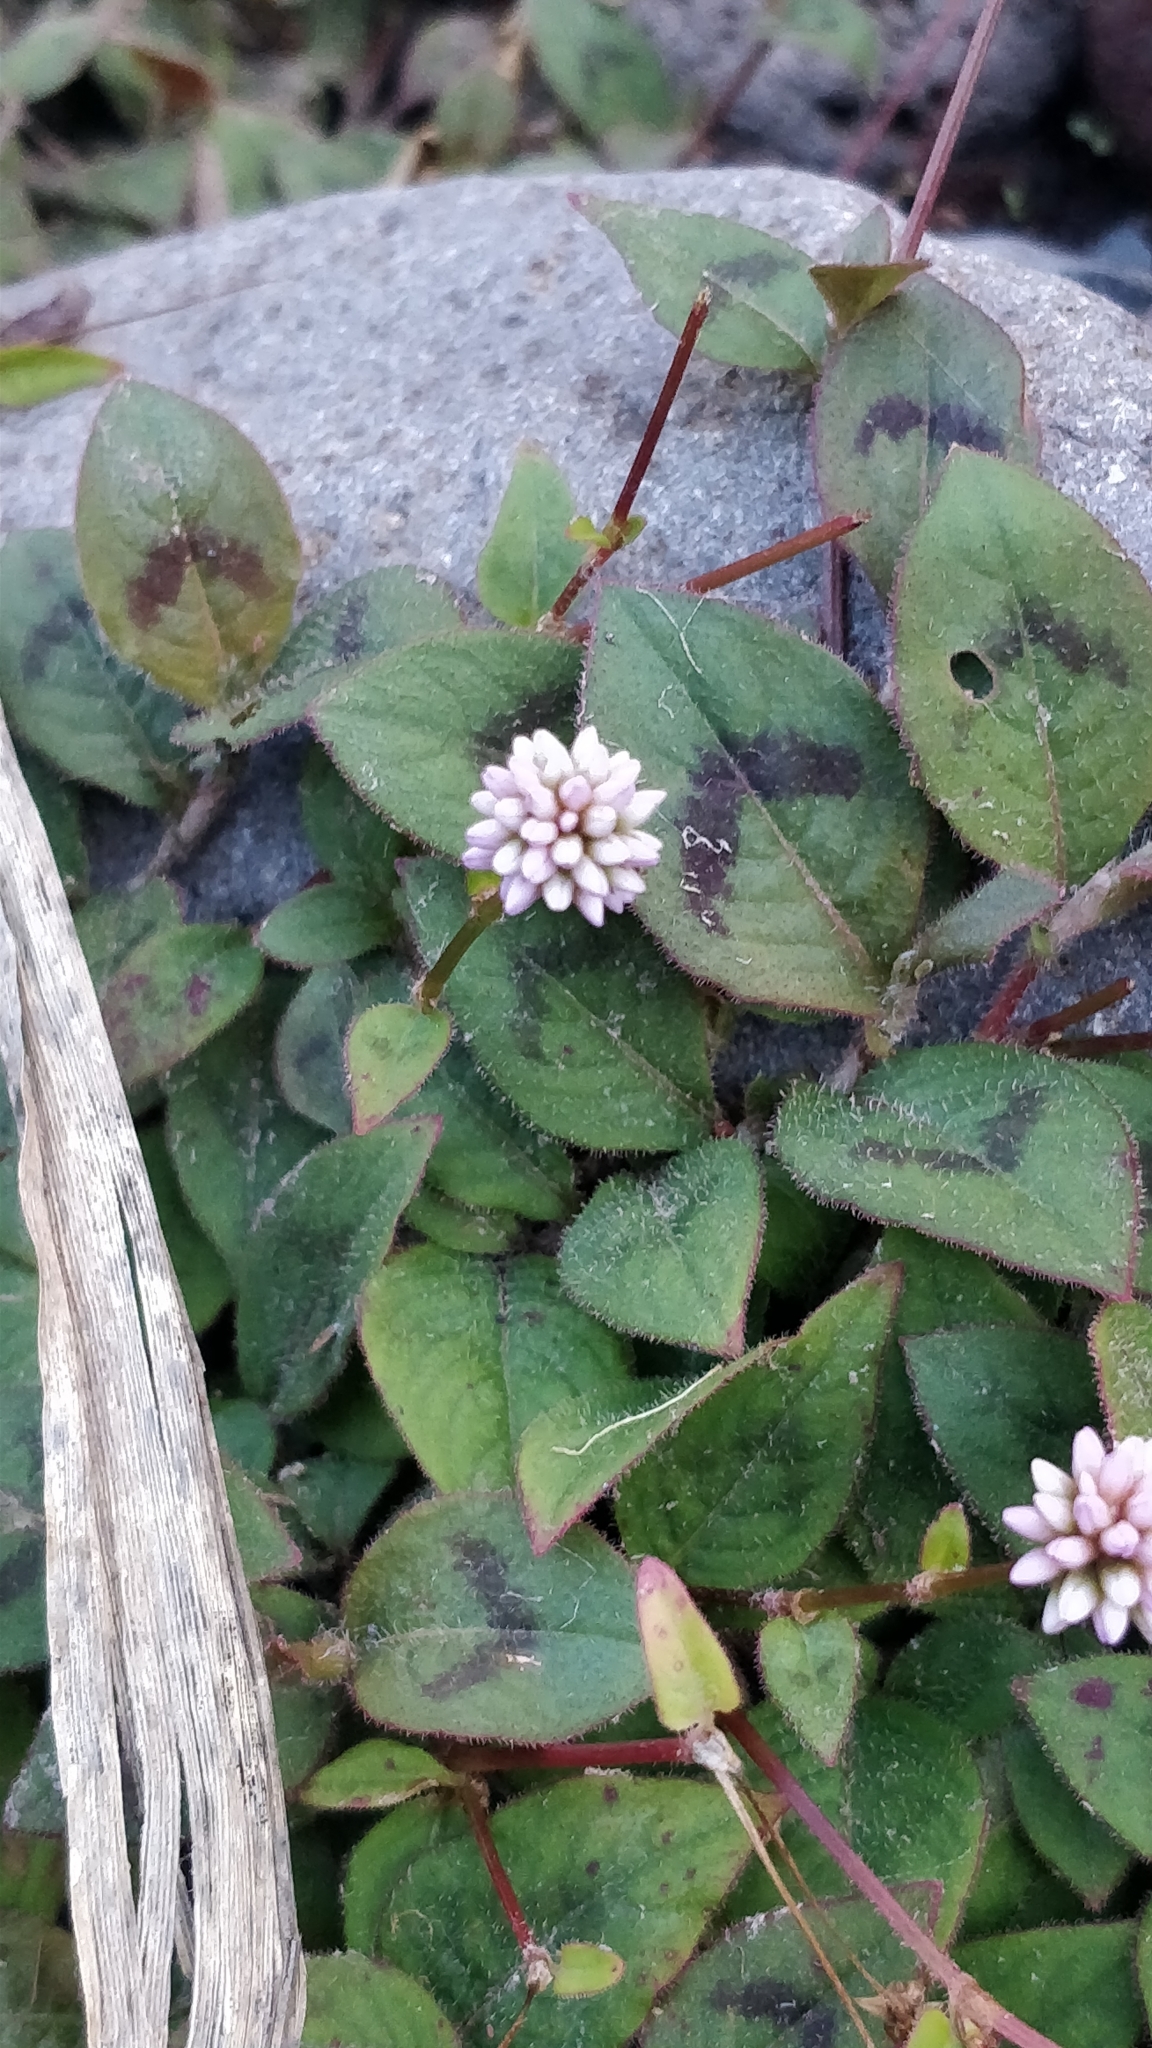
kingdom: Plantae
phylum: Tracheophyta
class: Magnoliopsida
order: Caryophyllales
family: Polygonaceae
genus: Persicaria
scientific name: Persicaria capitata
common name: Pinkhead smartweed
